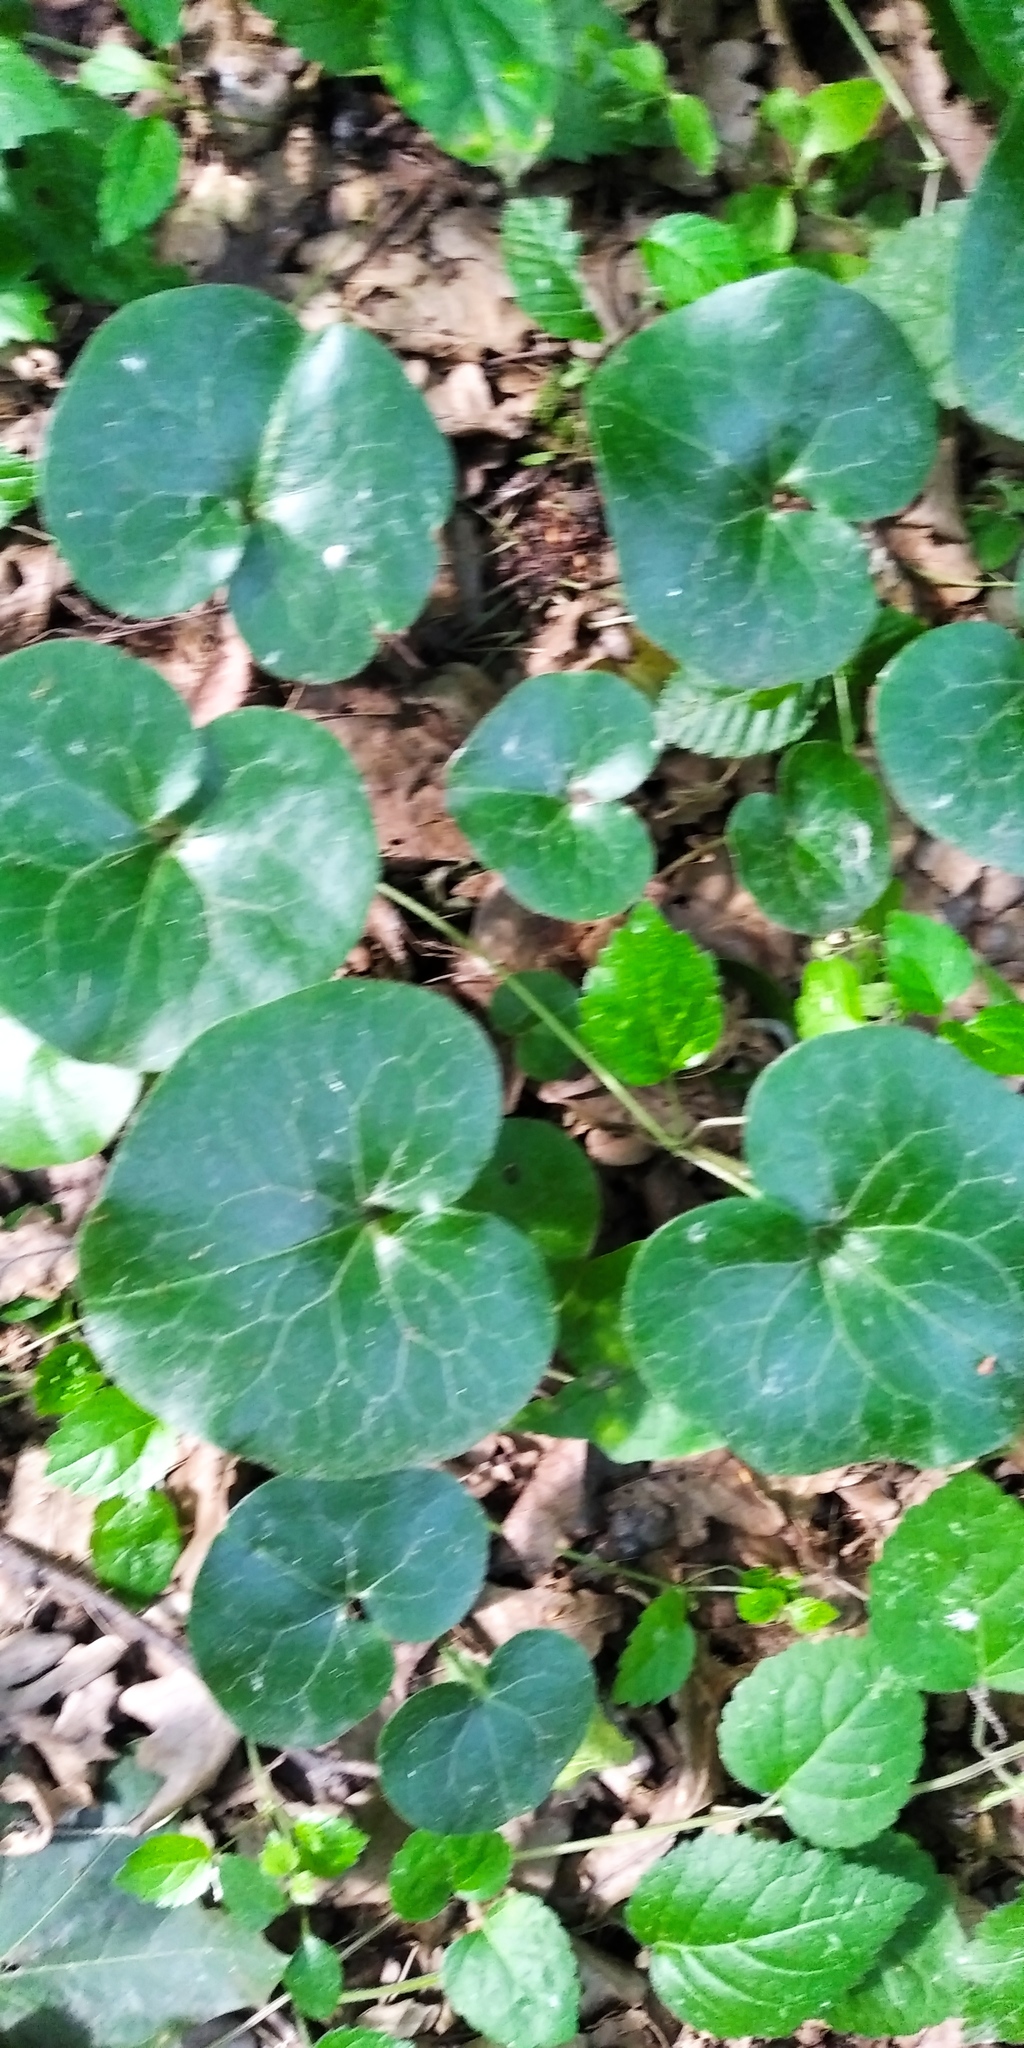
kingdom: Plantae
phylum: Tracheophyta
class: Magnoliopsida
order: Piperales
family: Aristolochiaceae
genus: Asarum
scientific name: Asarum europaeum
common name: Asarabacca
